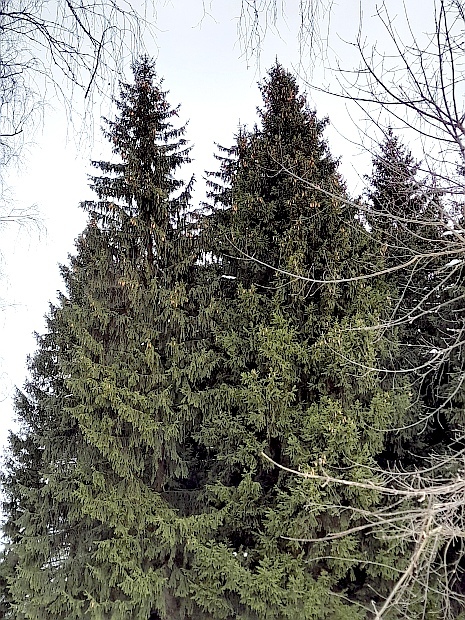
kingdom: Plantae
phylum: Tracheophyta
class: Pinopsida
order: Pinales
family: Pinaceae
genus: Picea
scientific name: Picea abies
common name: Norway spruce
